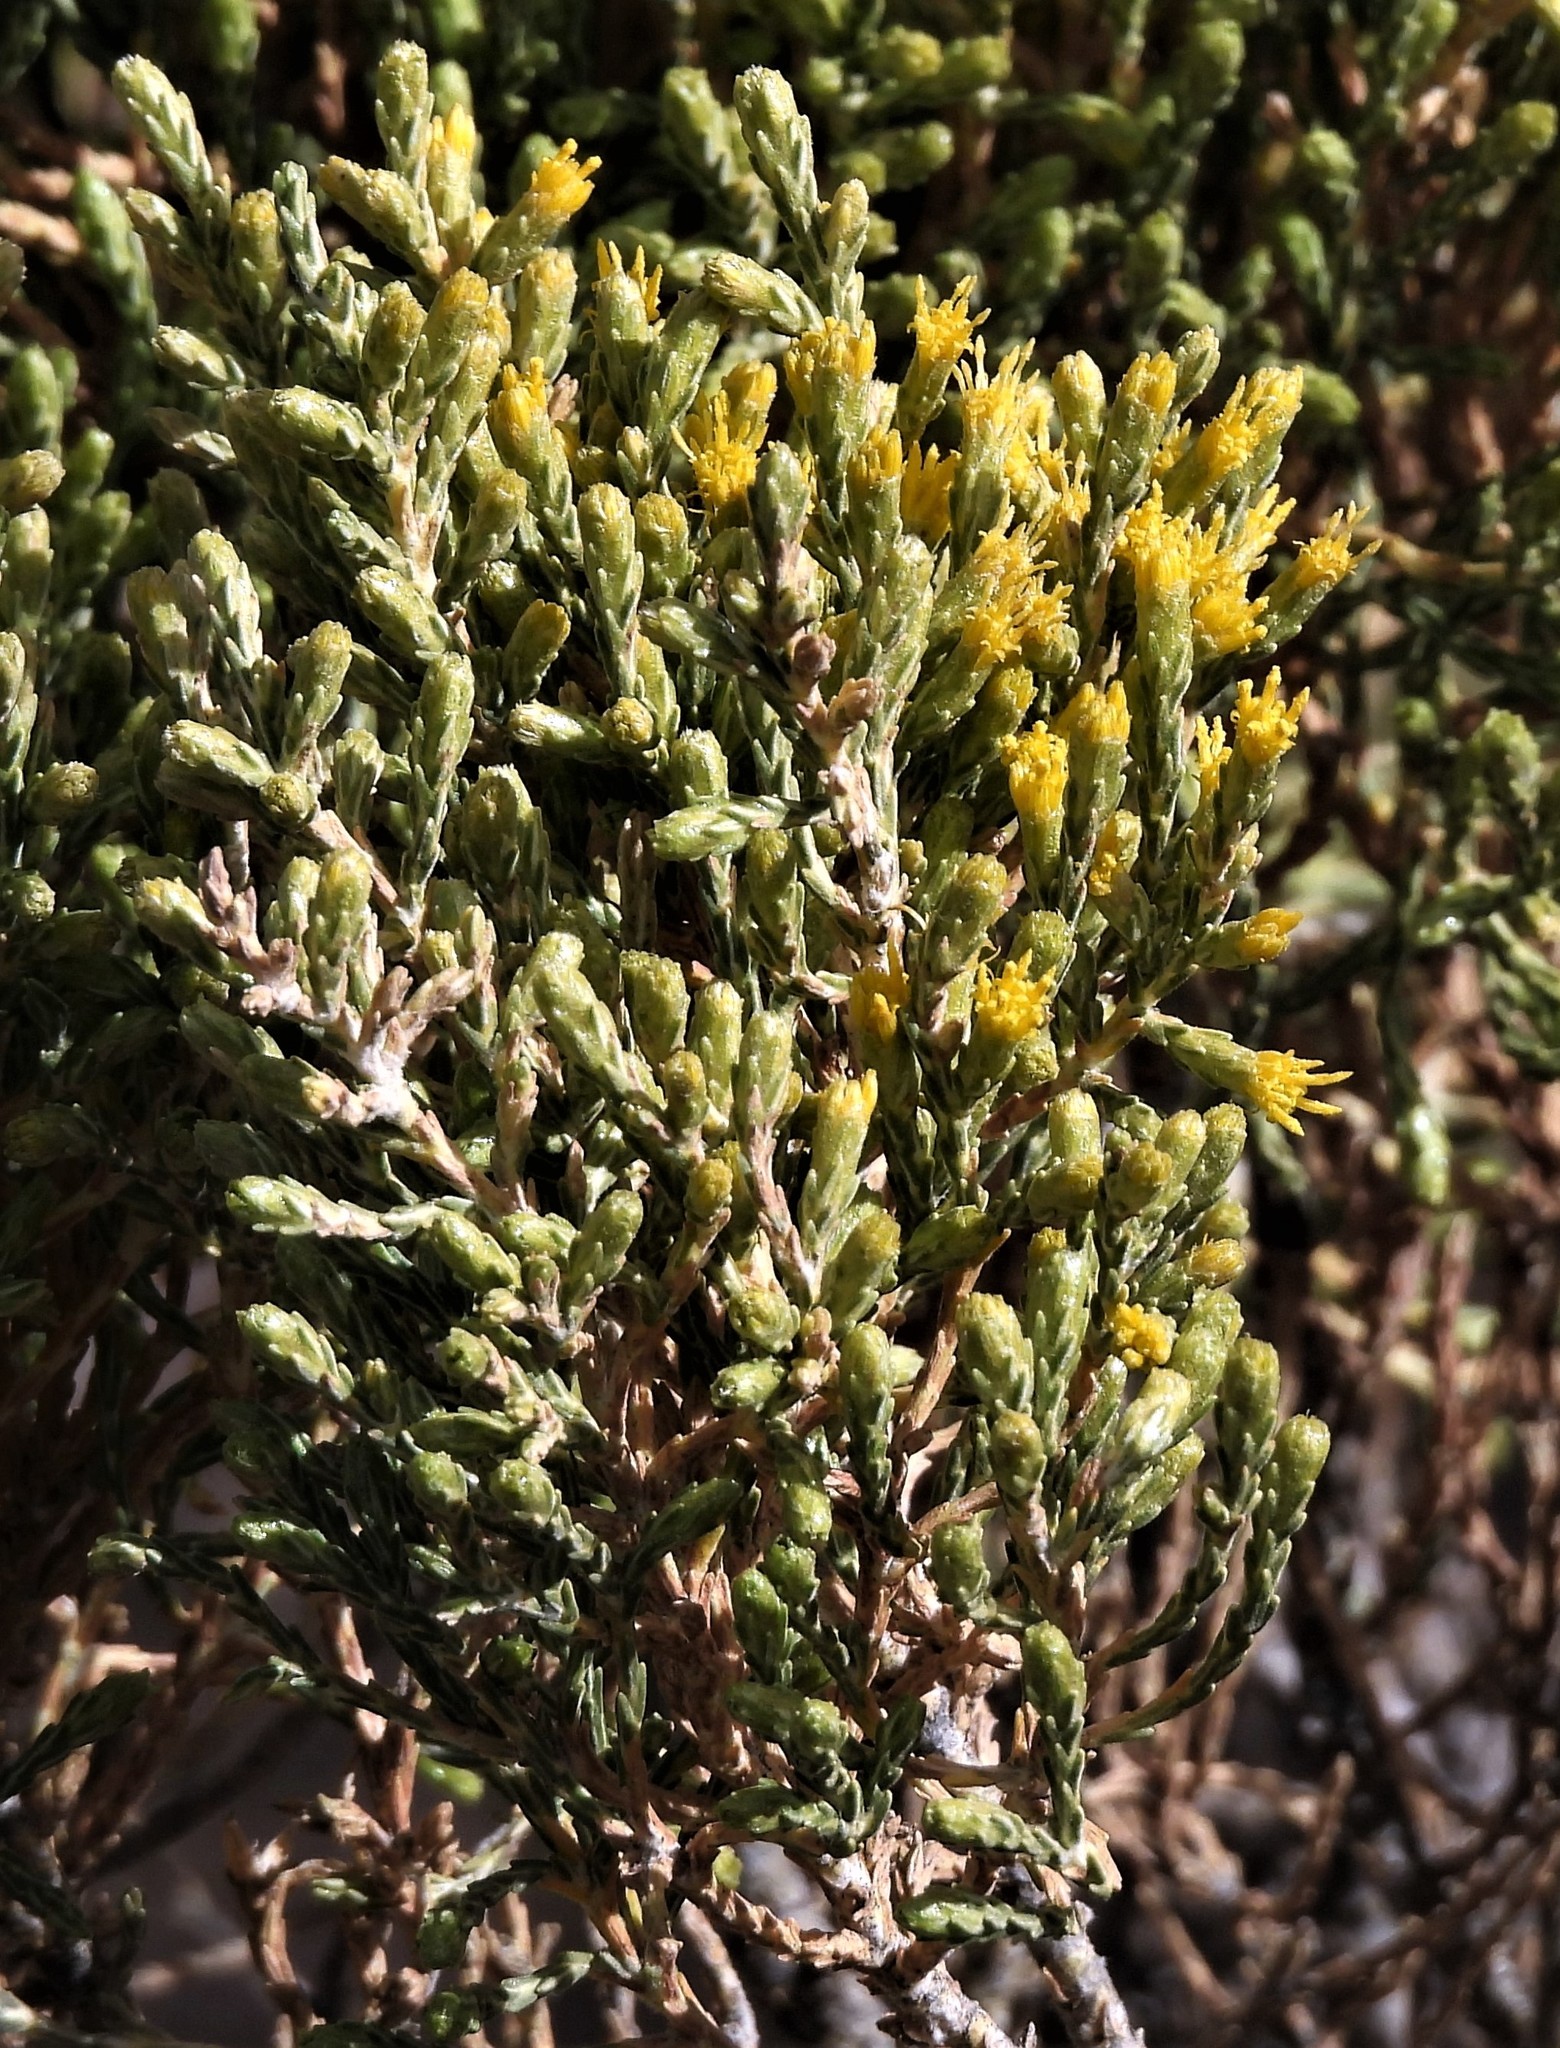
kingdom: Plantae
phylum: Tracheophyta
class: Magnoliopsida
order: Asterales
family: Asteraceae
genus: Parastrephia
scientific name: Parastrephia quadrangularis
